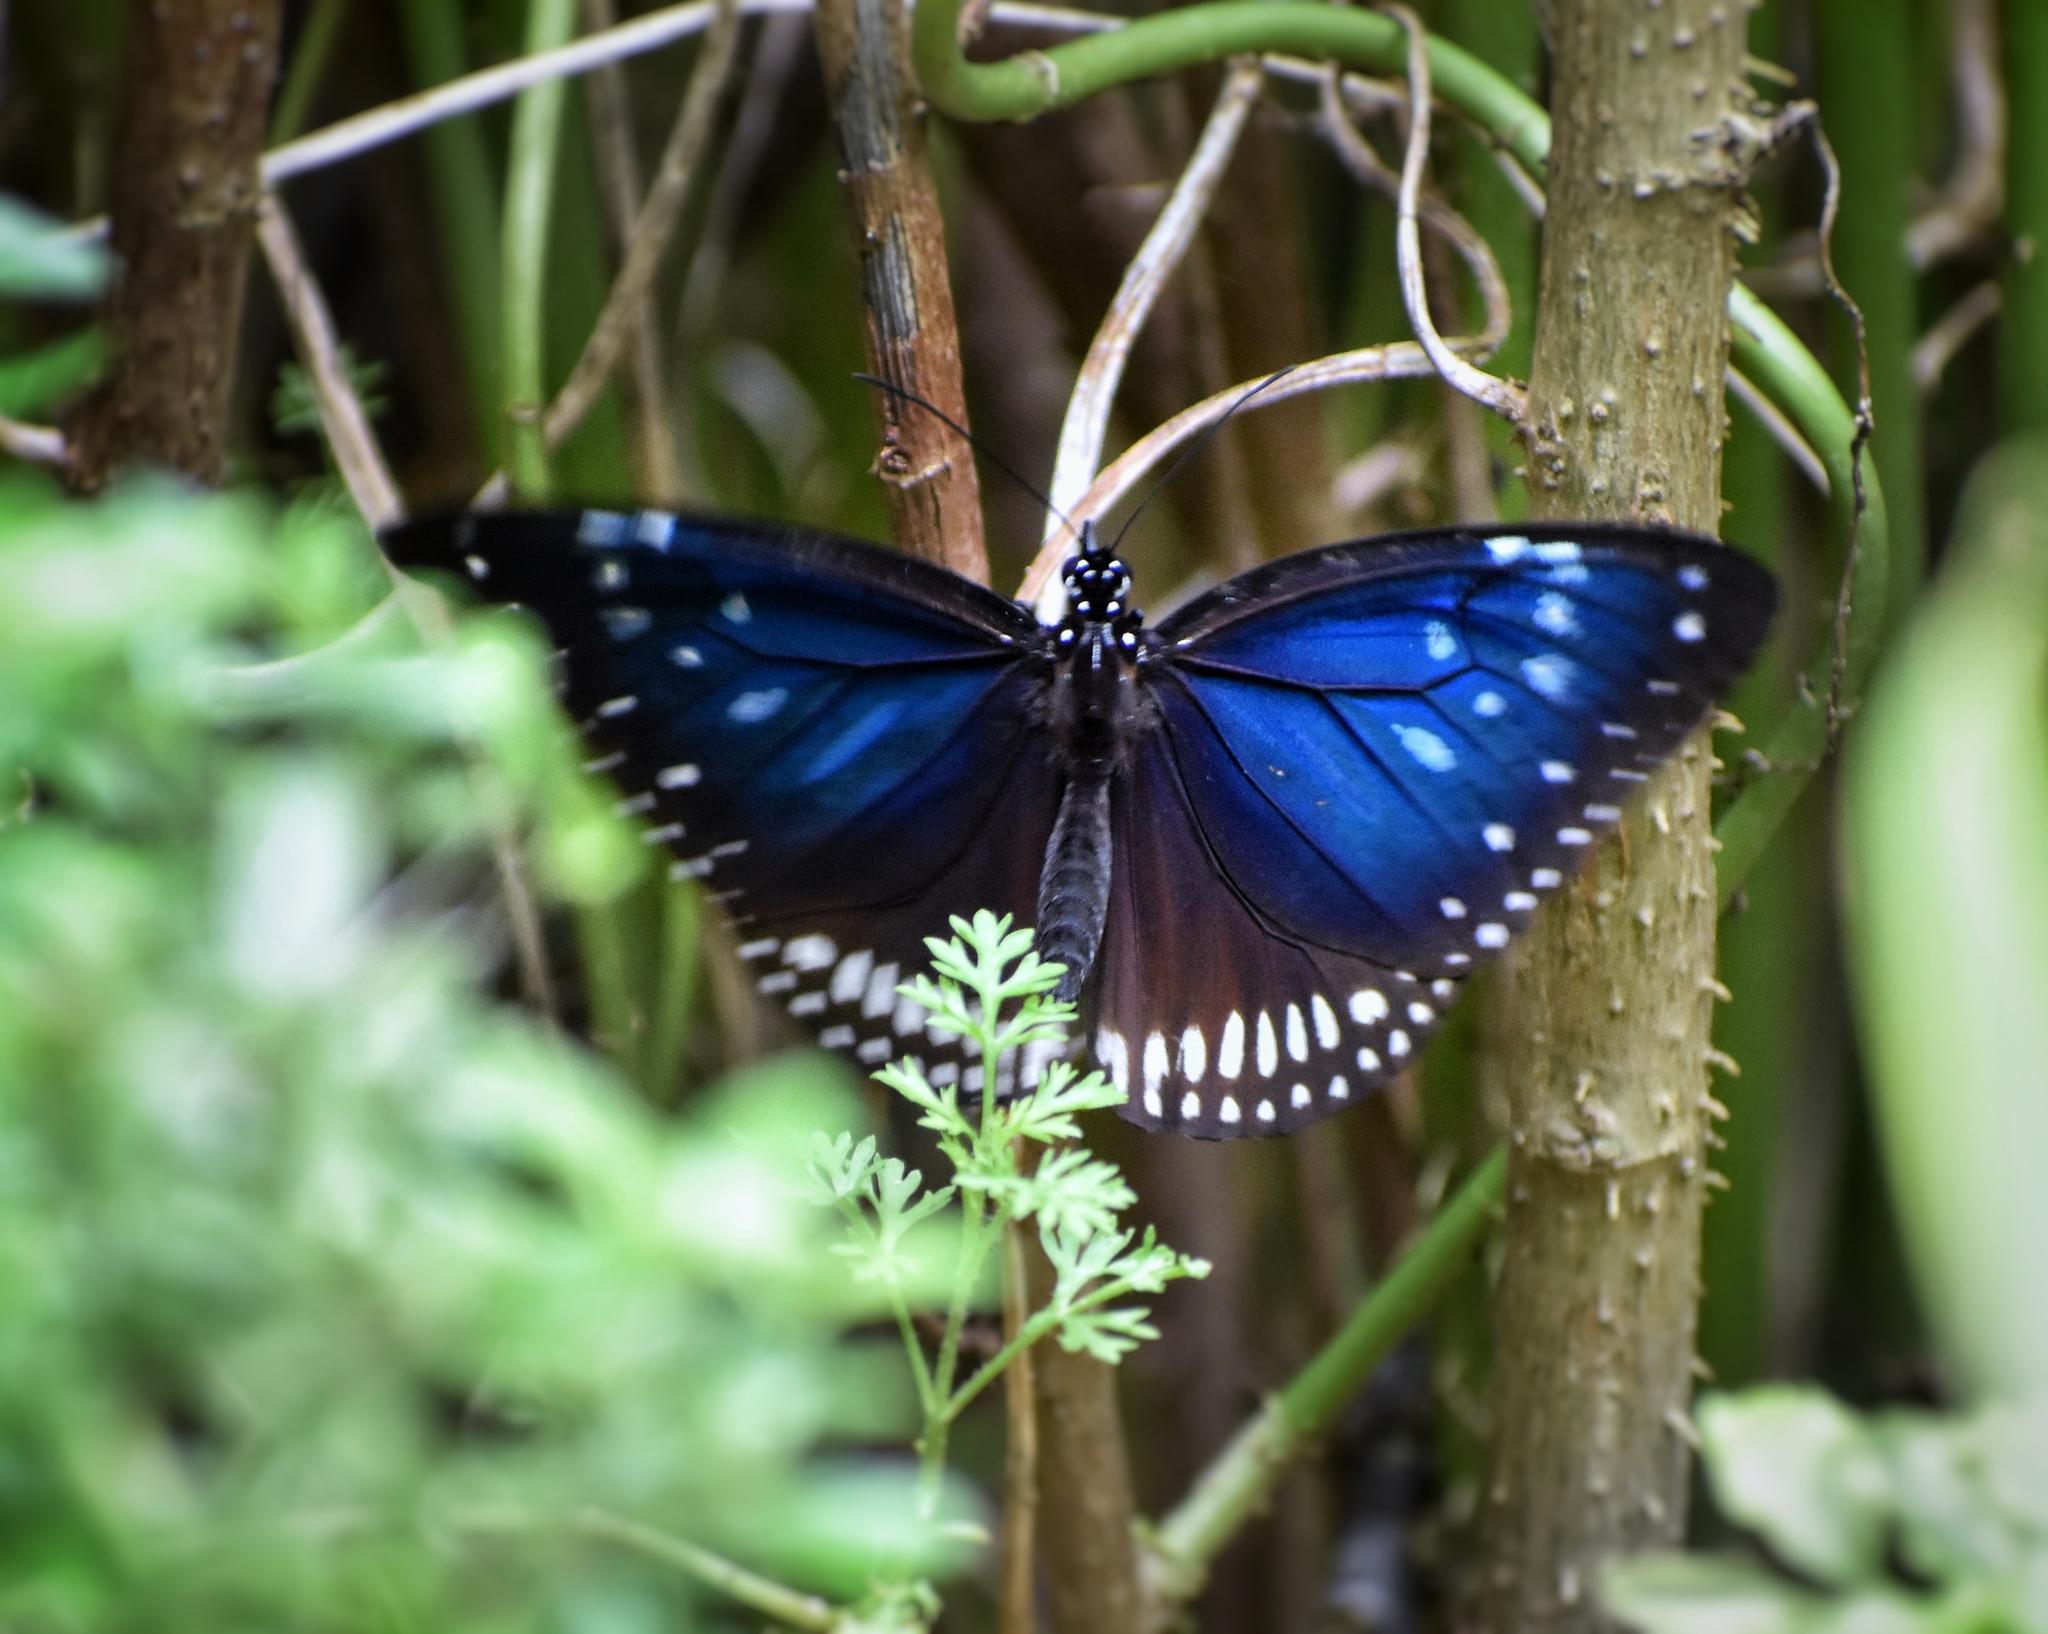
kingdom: Animalia
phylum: Arthropoda
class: Insecta
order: Lepidoptera
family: Nymphalidae
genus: Euploea
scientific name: Euploea midamus
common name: Blue-spotted crow butterfly
